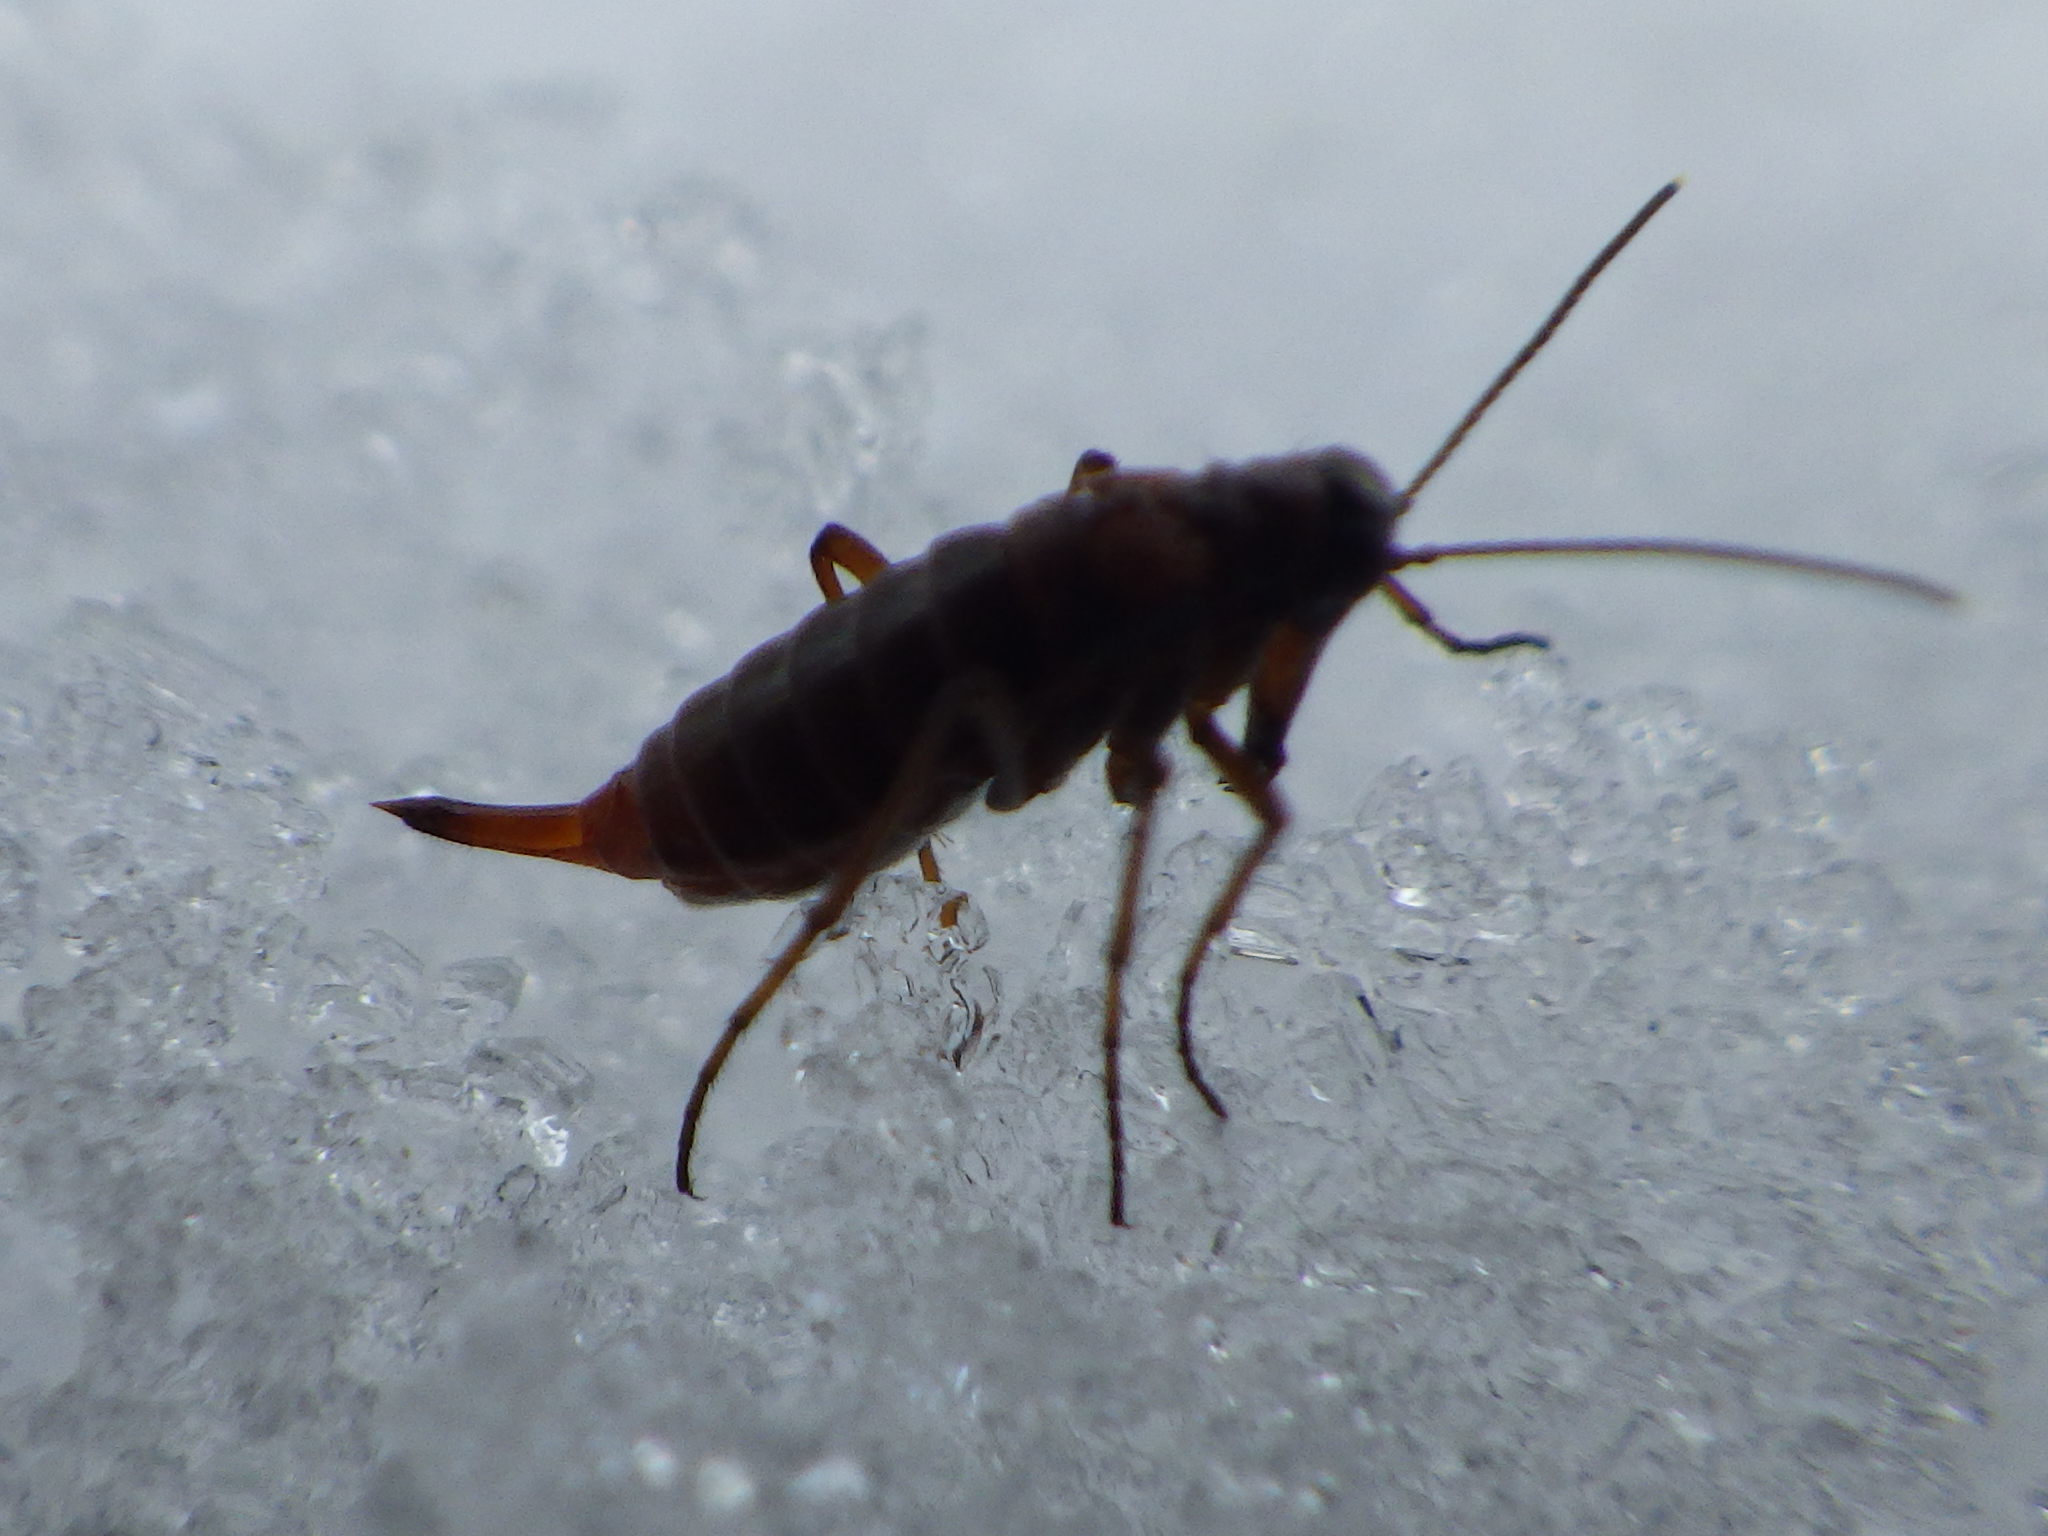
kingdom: Animalia
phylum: Arthropoda
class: Insecta
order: Mecoptera
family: Boreidae
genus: Boreus
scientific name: Boreus nivoriundus
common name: Snow-born boreus
